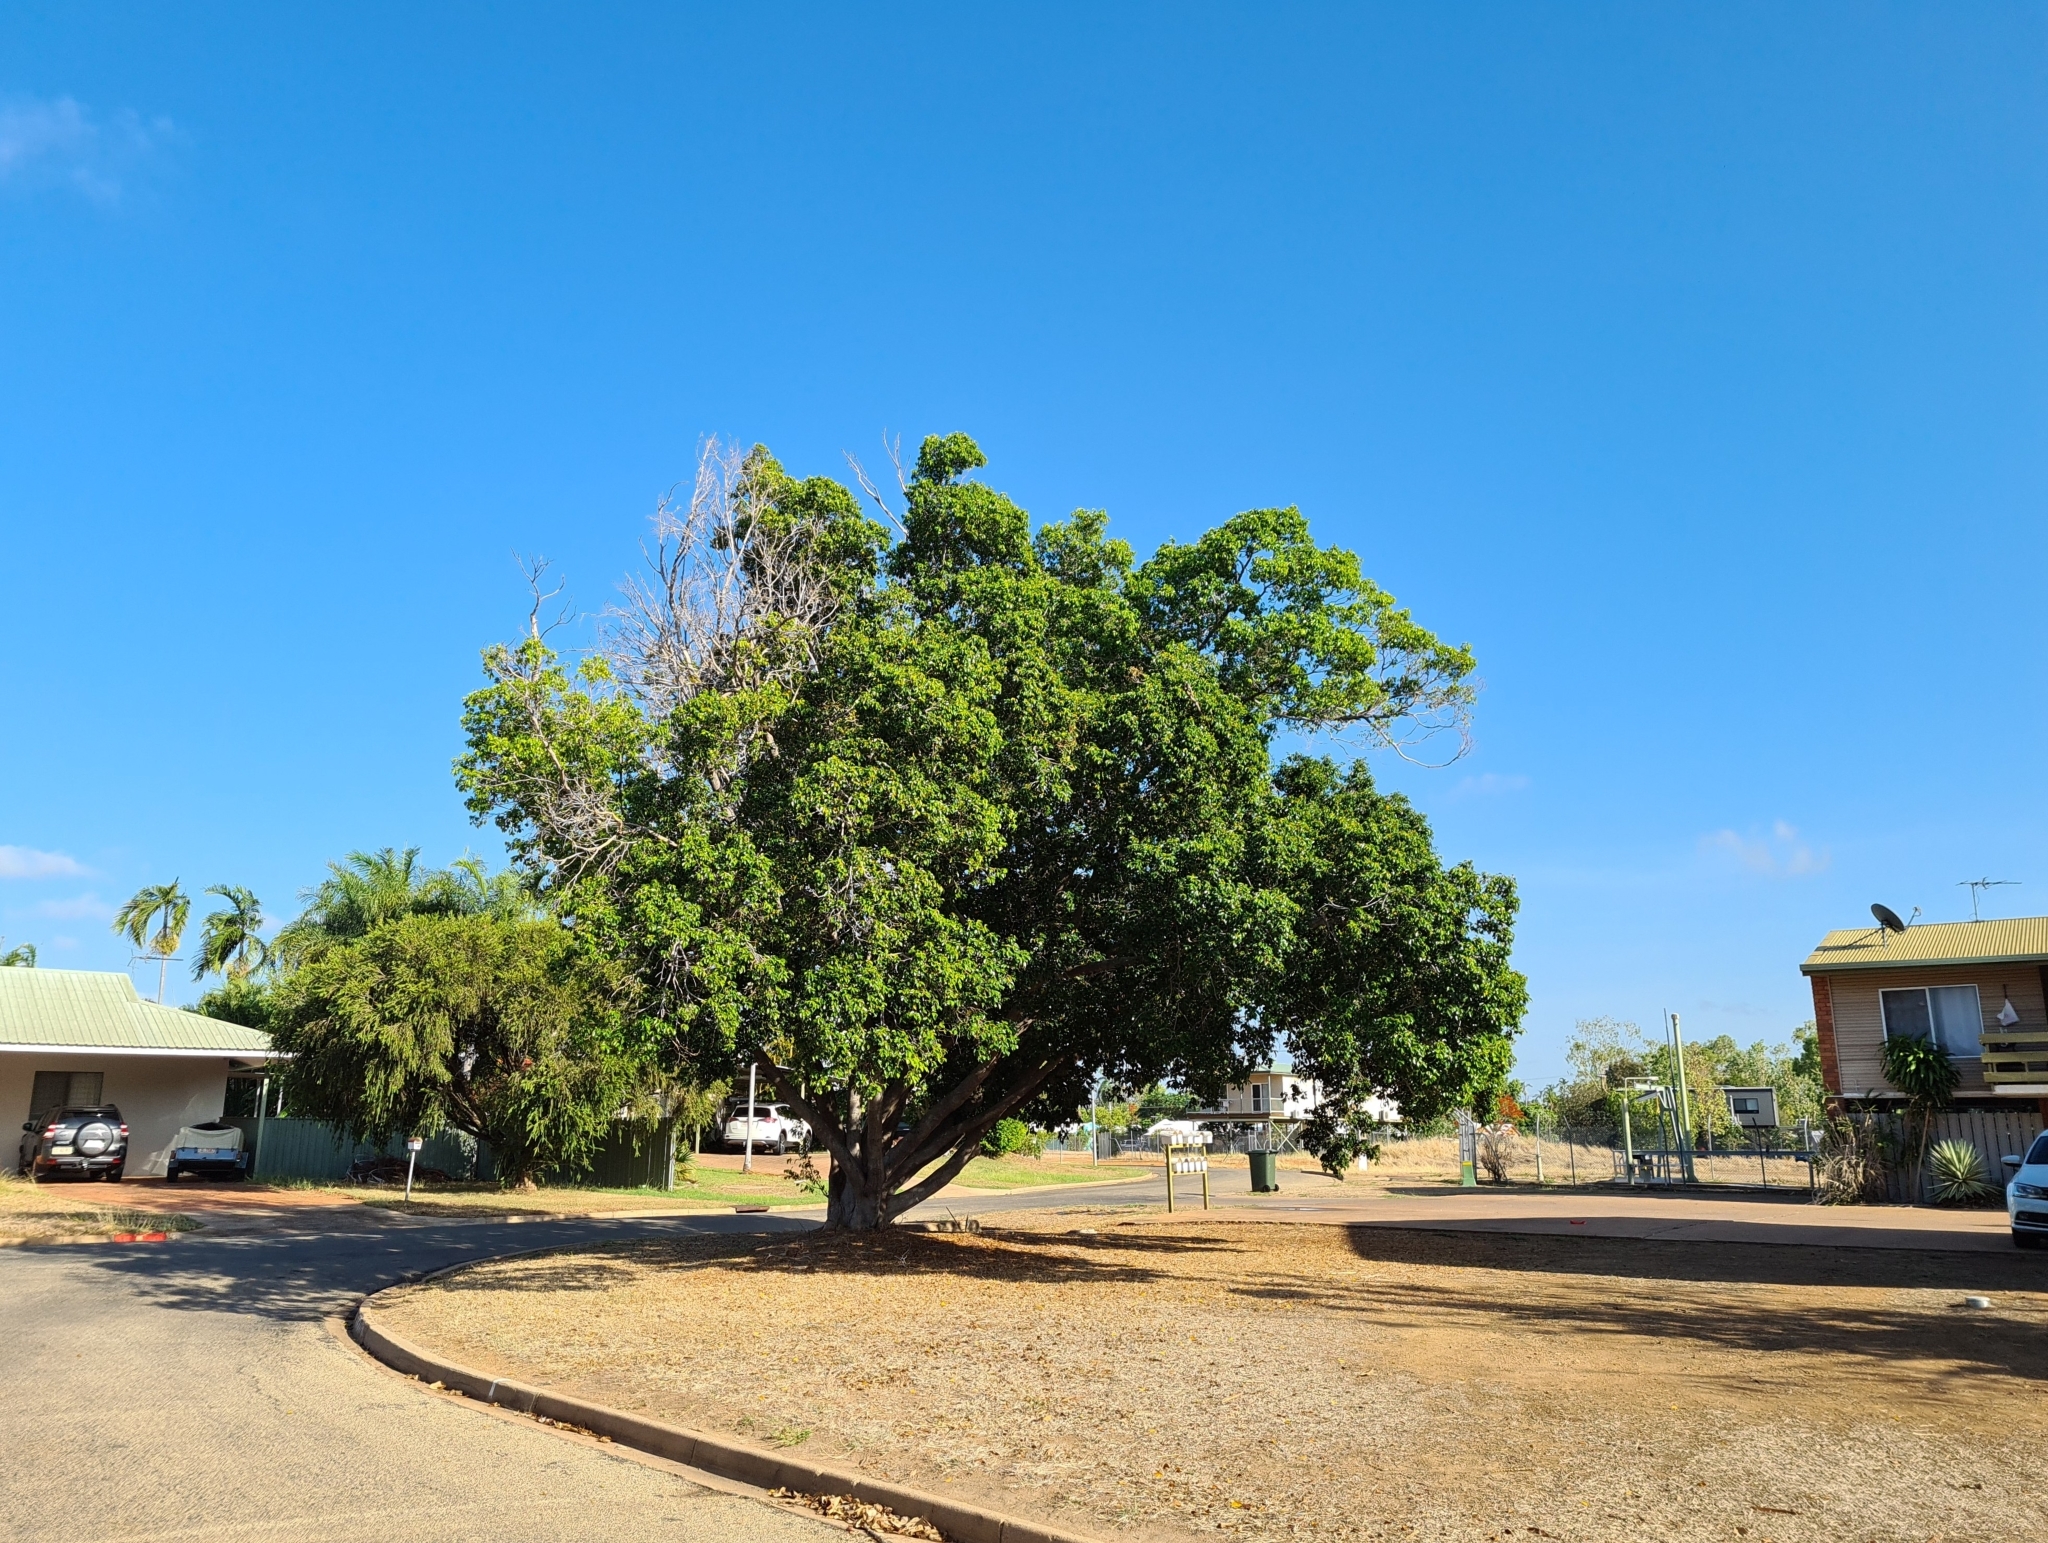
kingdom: Plantae
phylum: Tracheophyta
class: Magnoliopsida
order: Rosales
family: Moraceae
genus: Ficus
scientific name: Ficus benjamina
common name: Weeping fig
